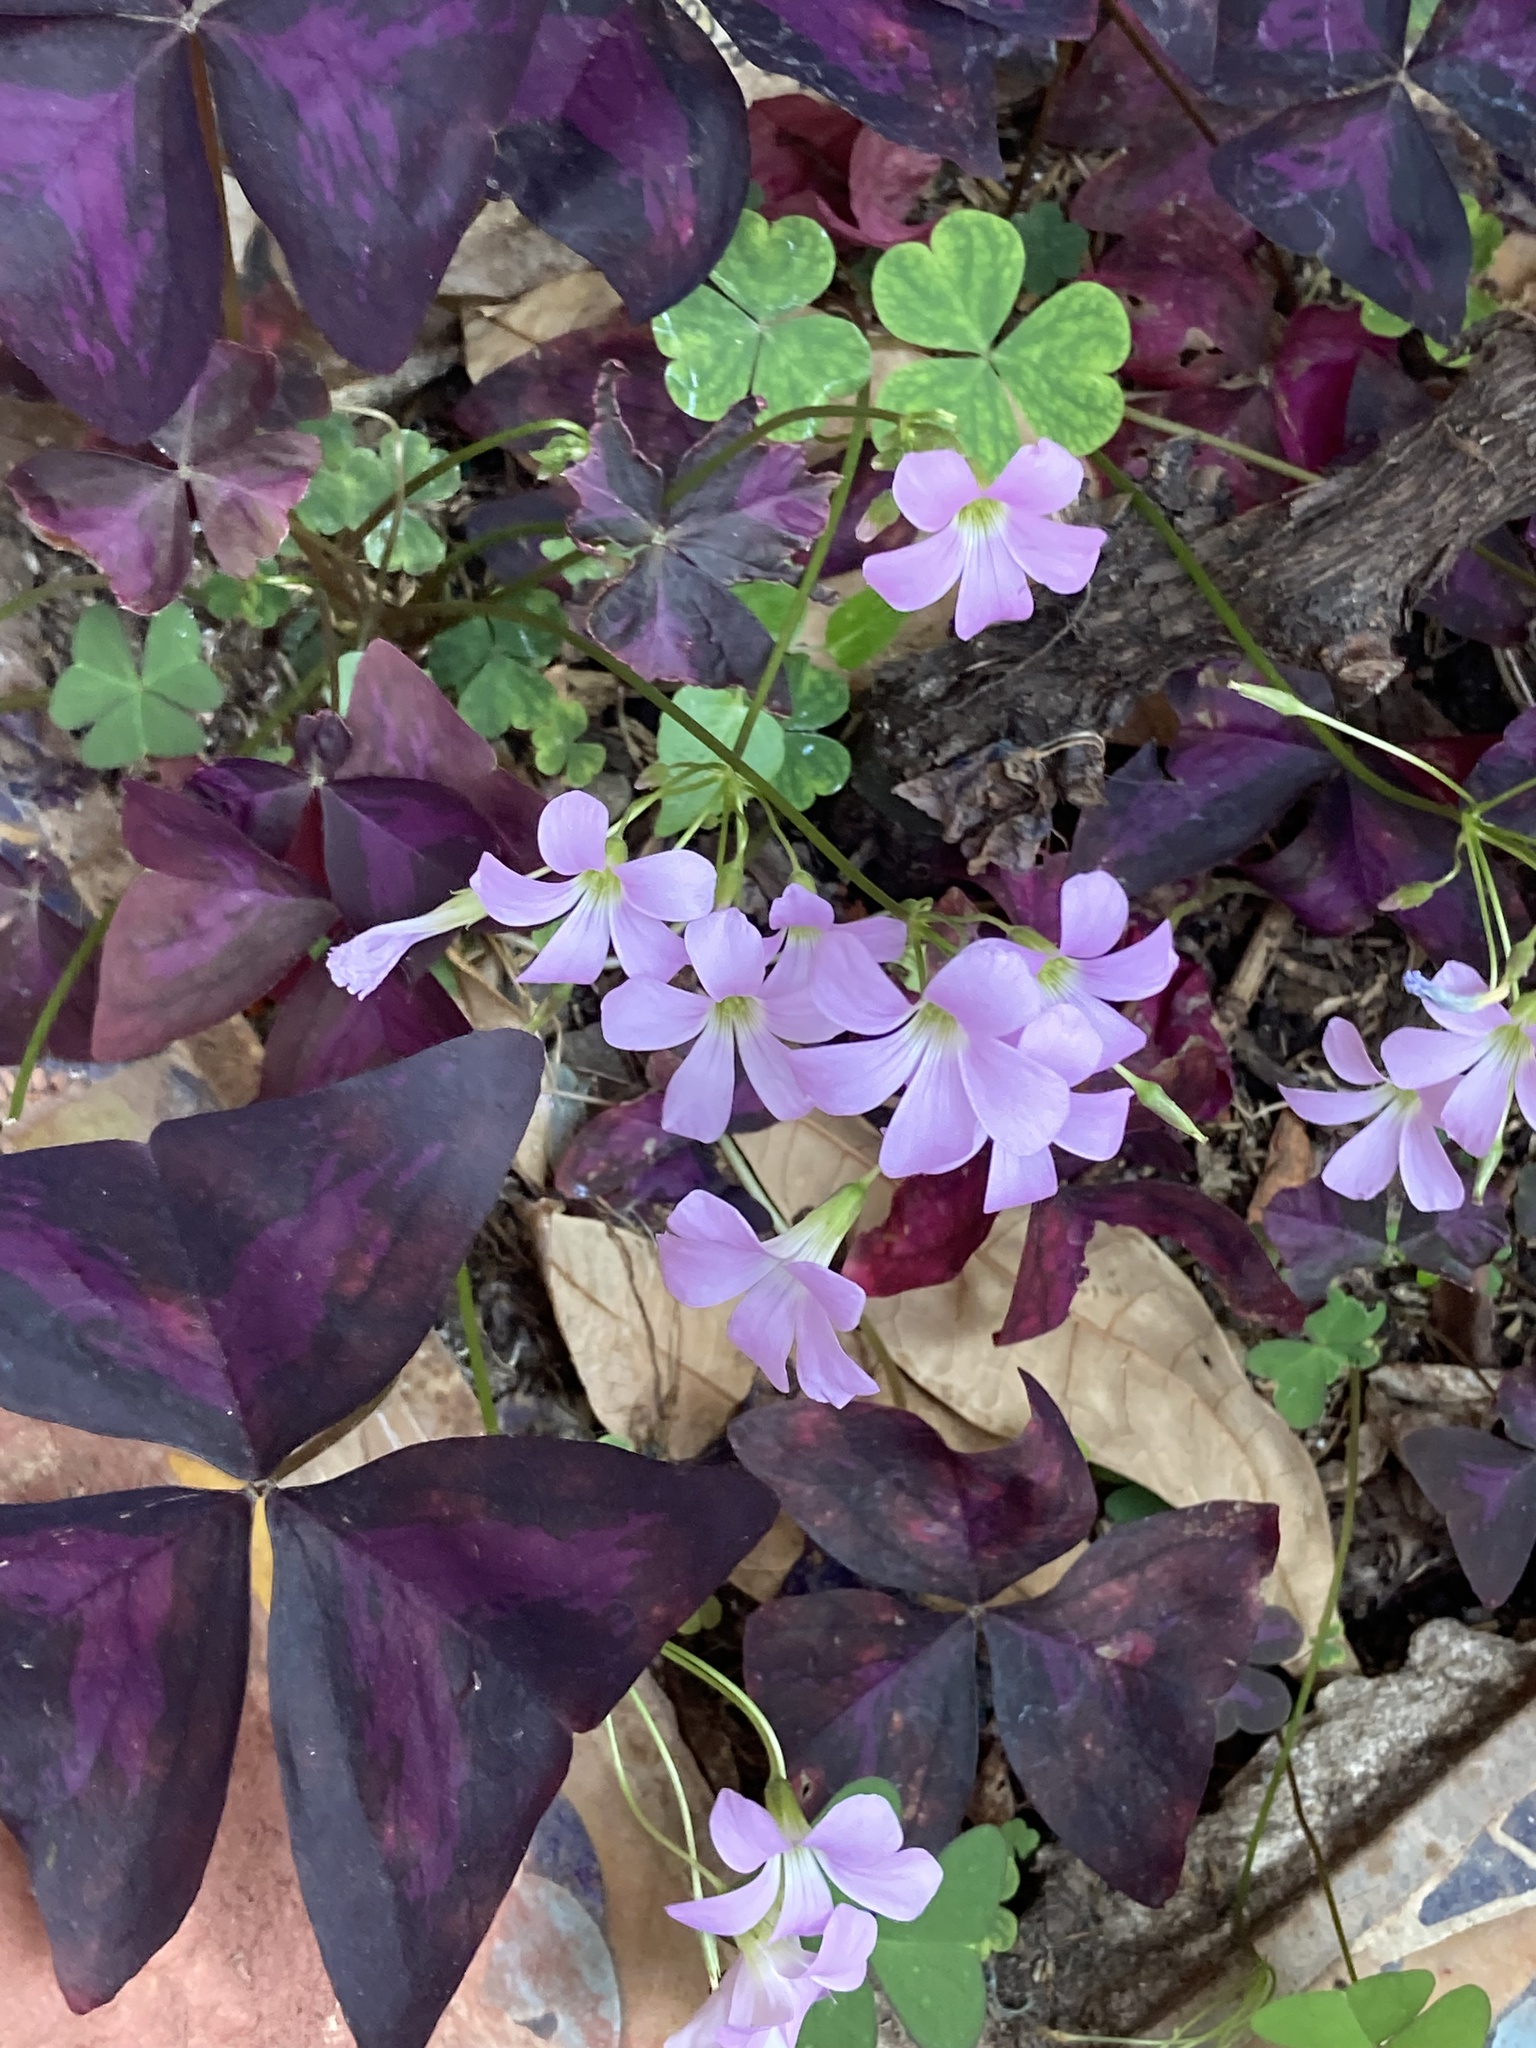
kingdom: Plantae
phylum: Tracheophyta
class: Magnoliopsida
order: Oxalidales
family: Oxalidaceae
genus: Oxalis
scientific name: Oxalis triangularis
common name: Wood sorrel
